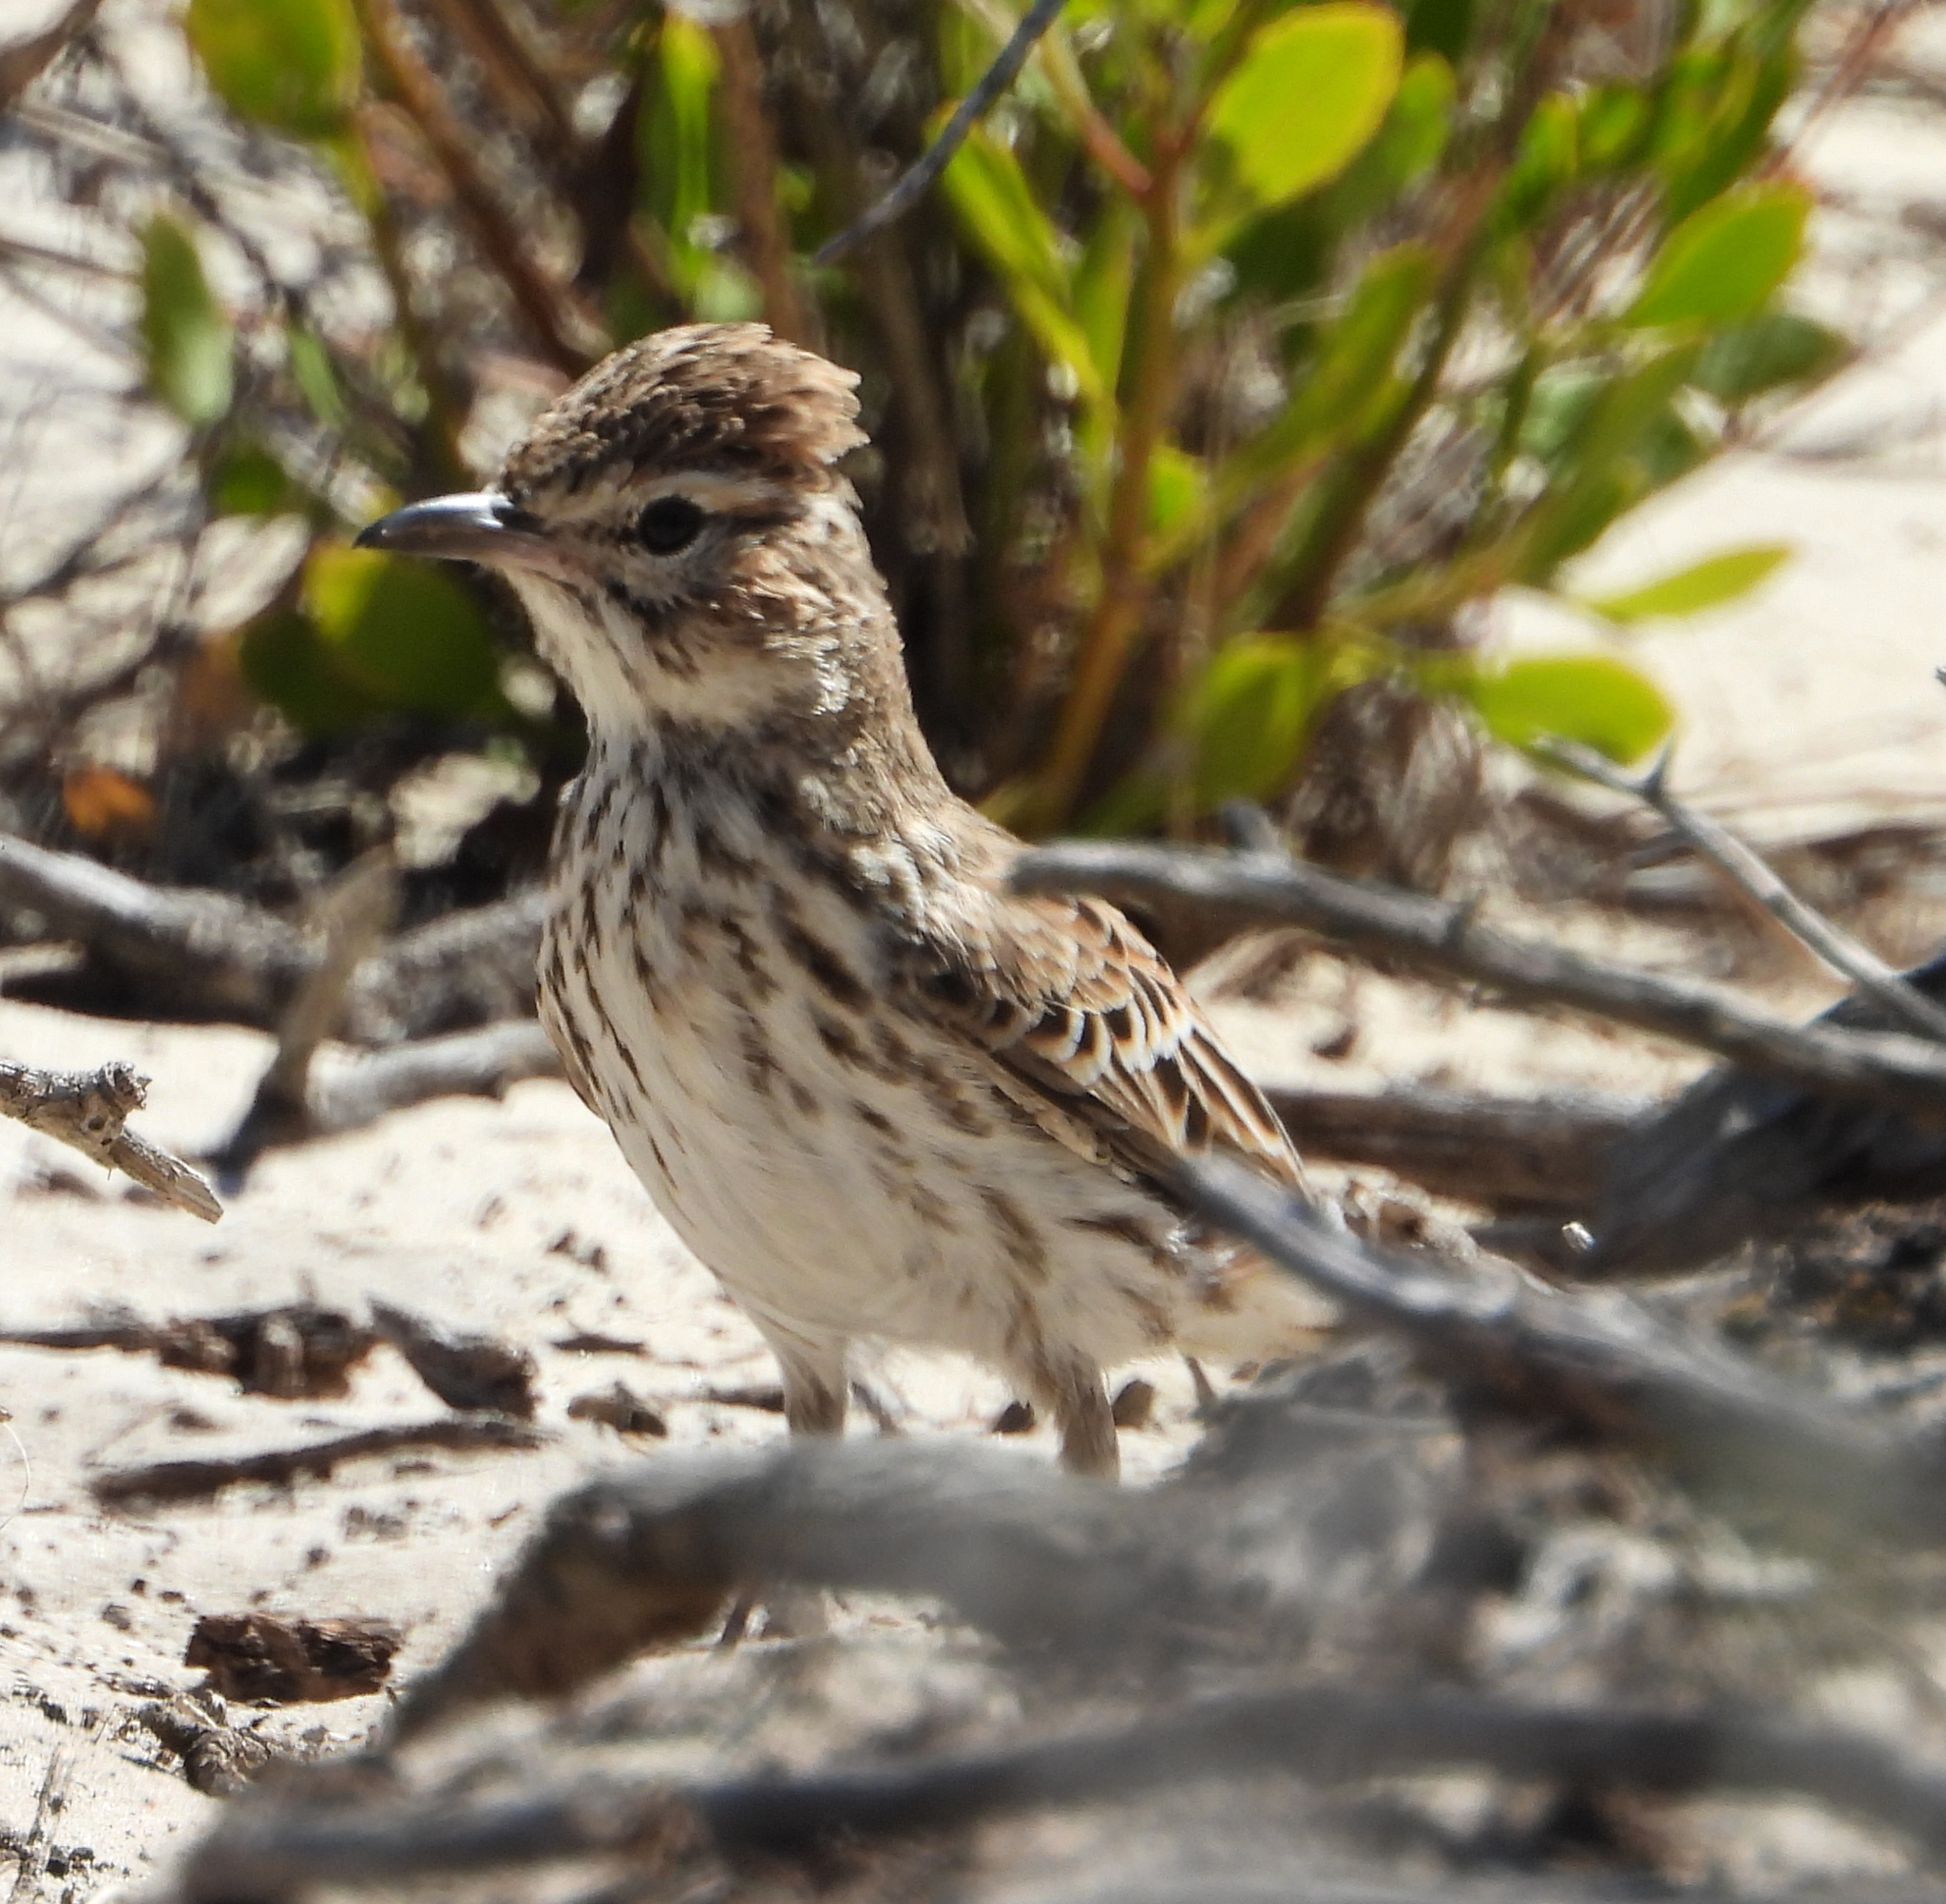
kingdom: Animalia
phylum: Chordata
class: Aves
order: Passeriformes
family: Alaudidae
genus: Calendulauda
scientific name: Calendulauda albescens
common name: Karoo lark
